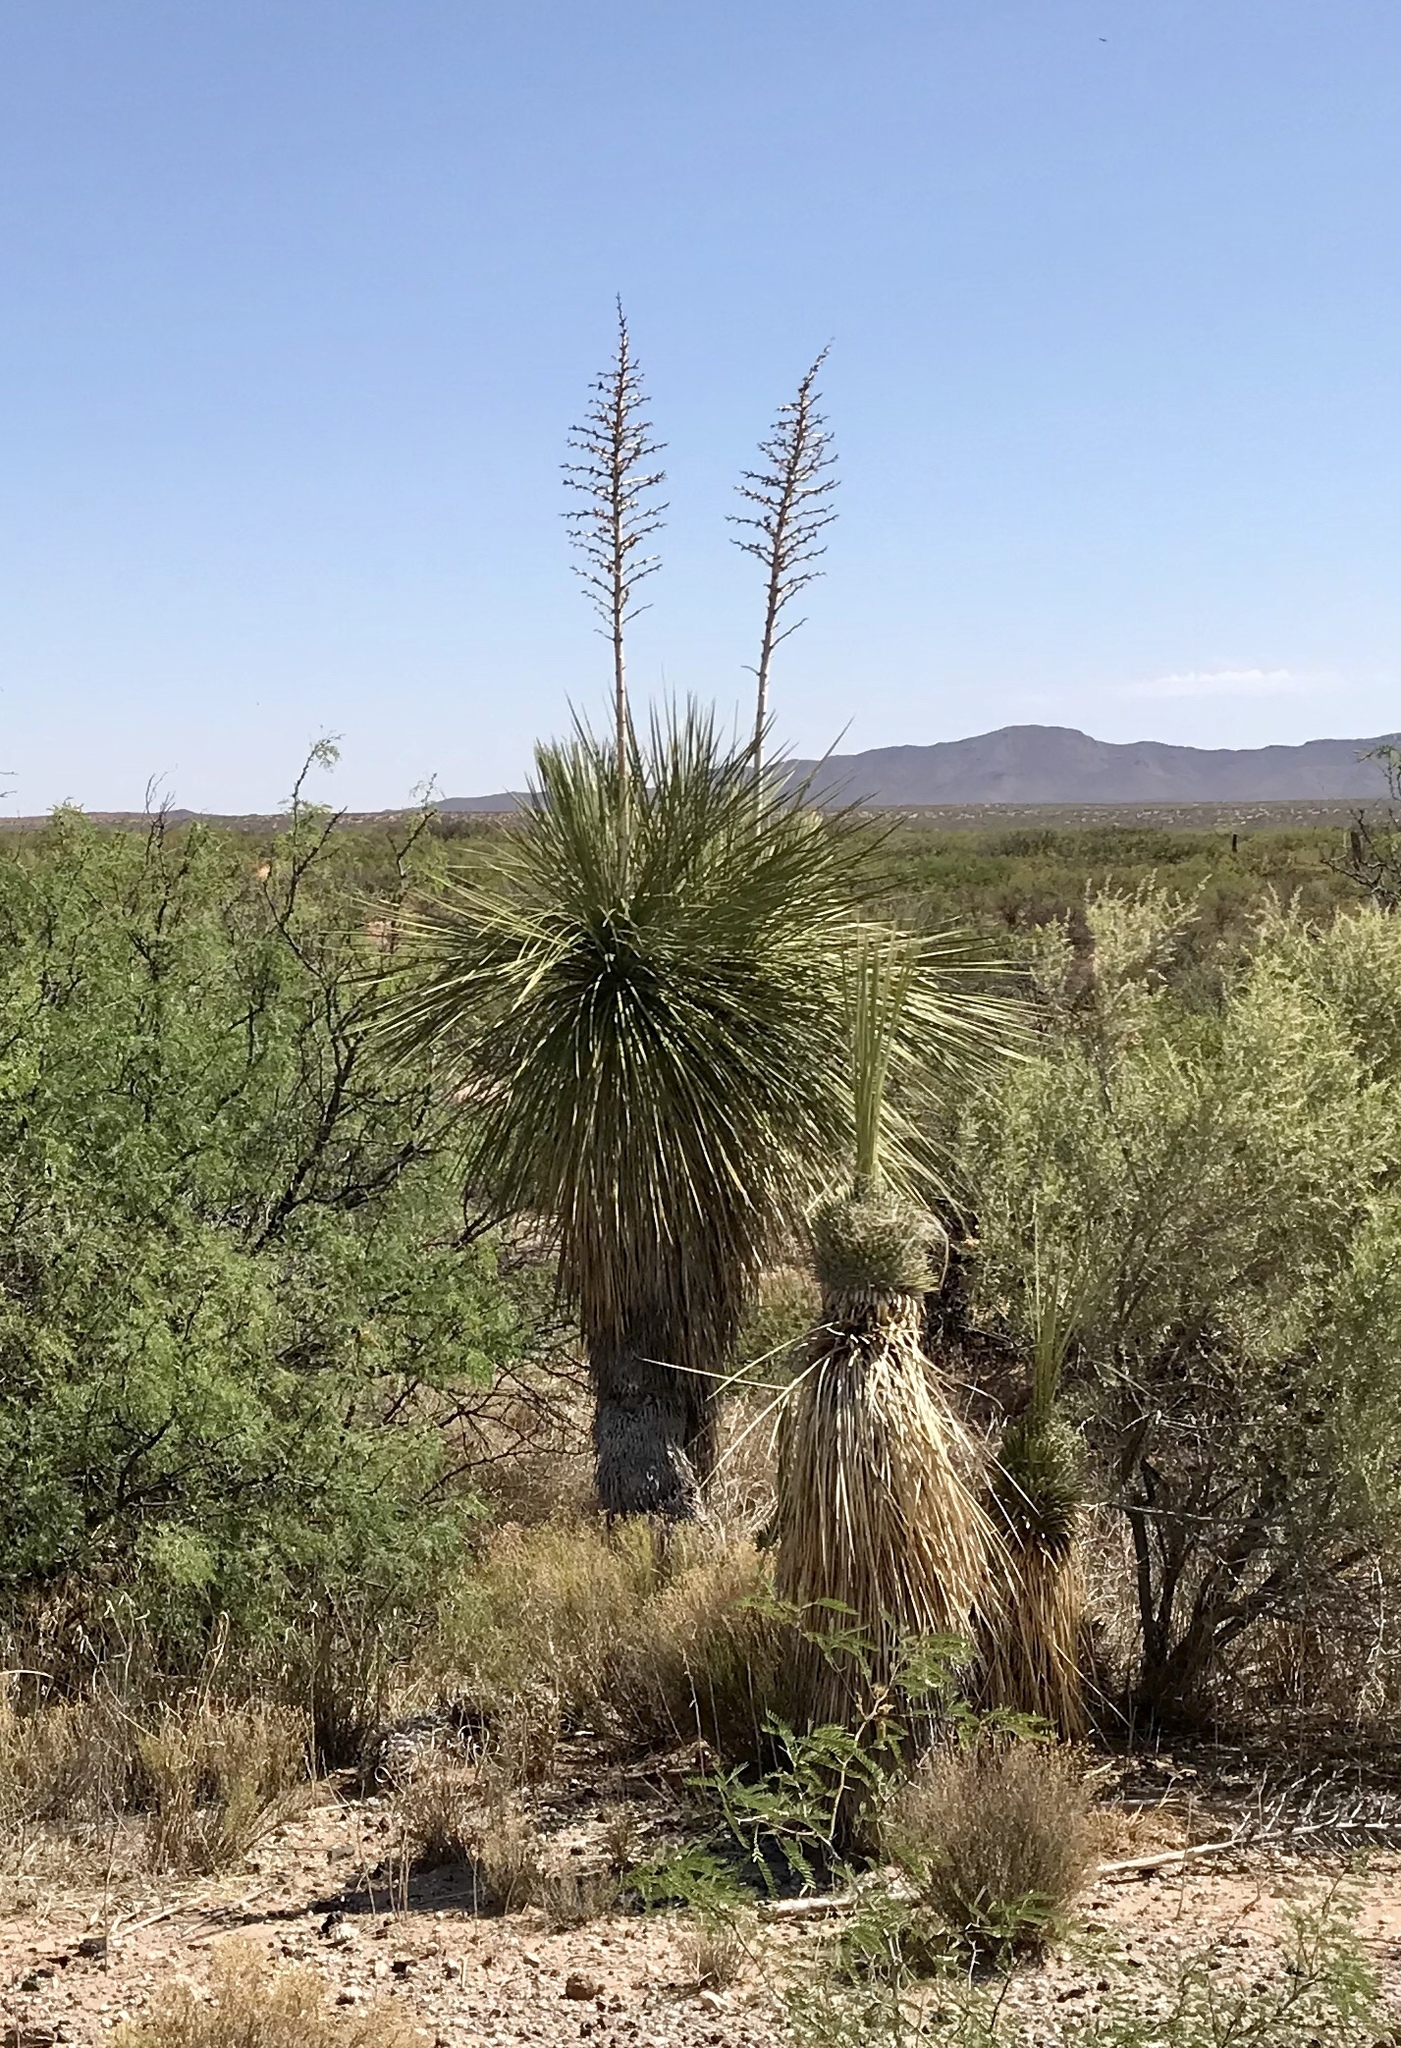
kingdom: Plantae
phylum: Tracheophyta
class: Liliopsida
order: Asparagales
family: Asparagaceae
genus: Yucca
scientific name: Yucca elata
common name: Palmella
